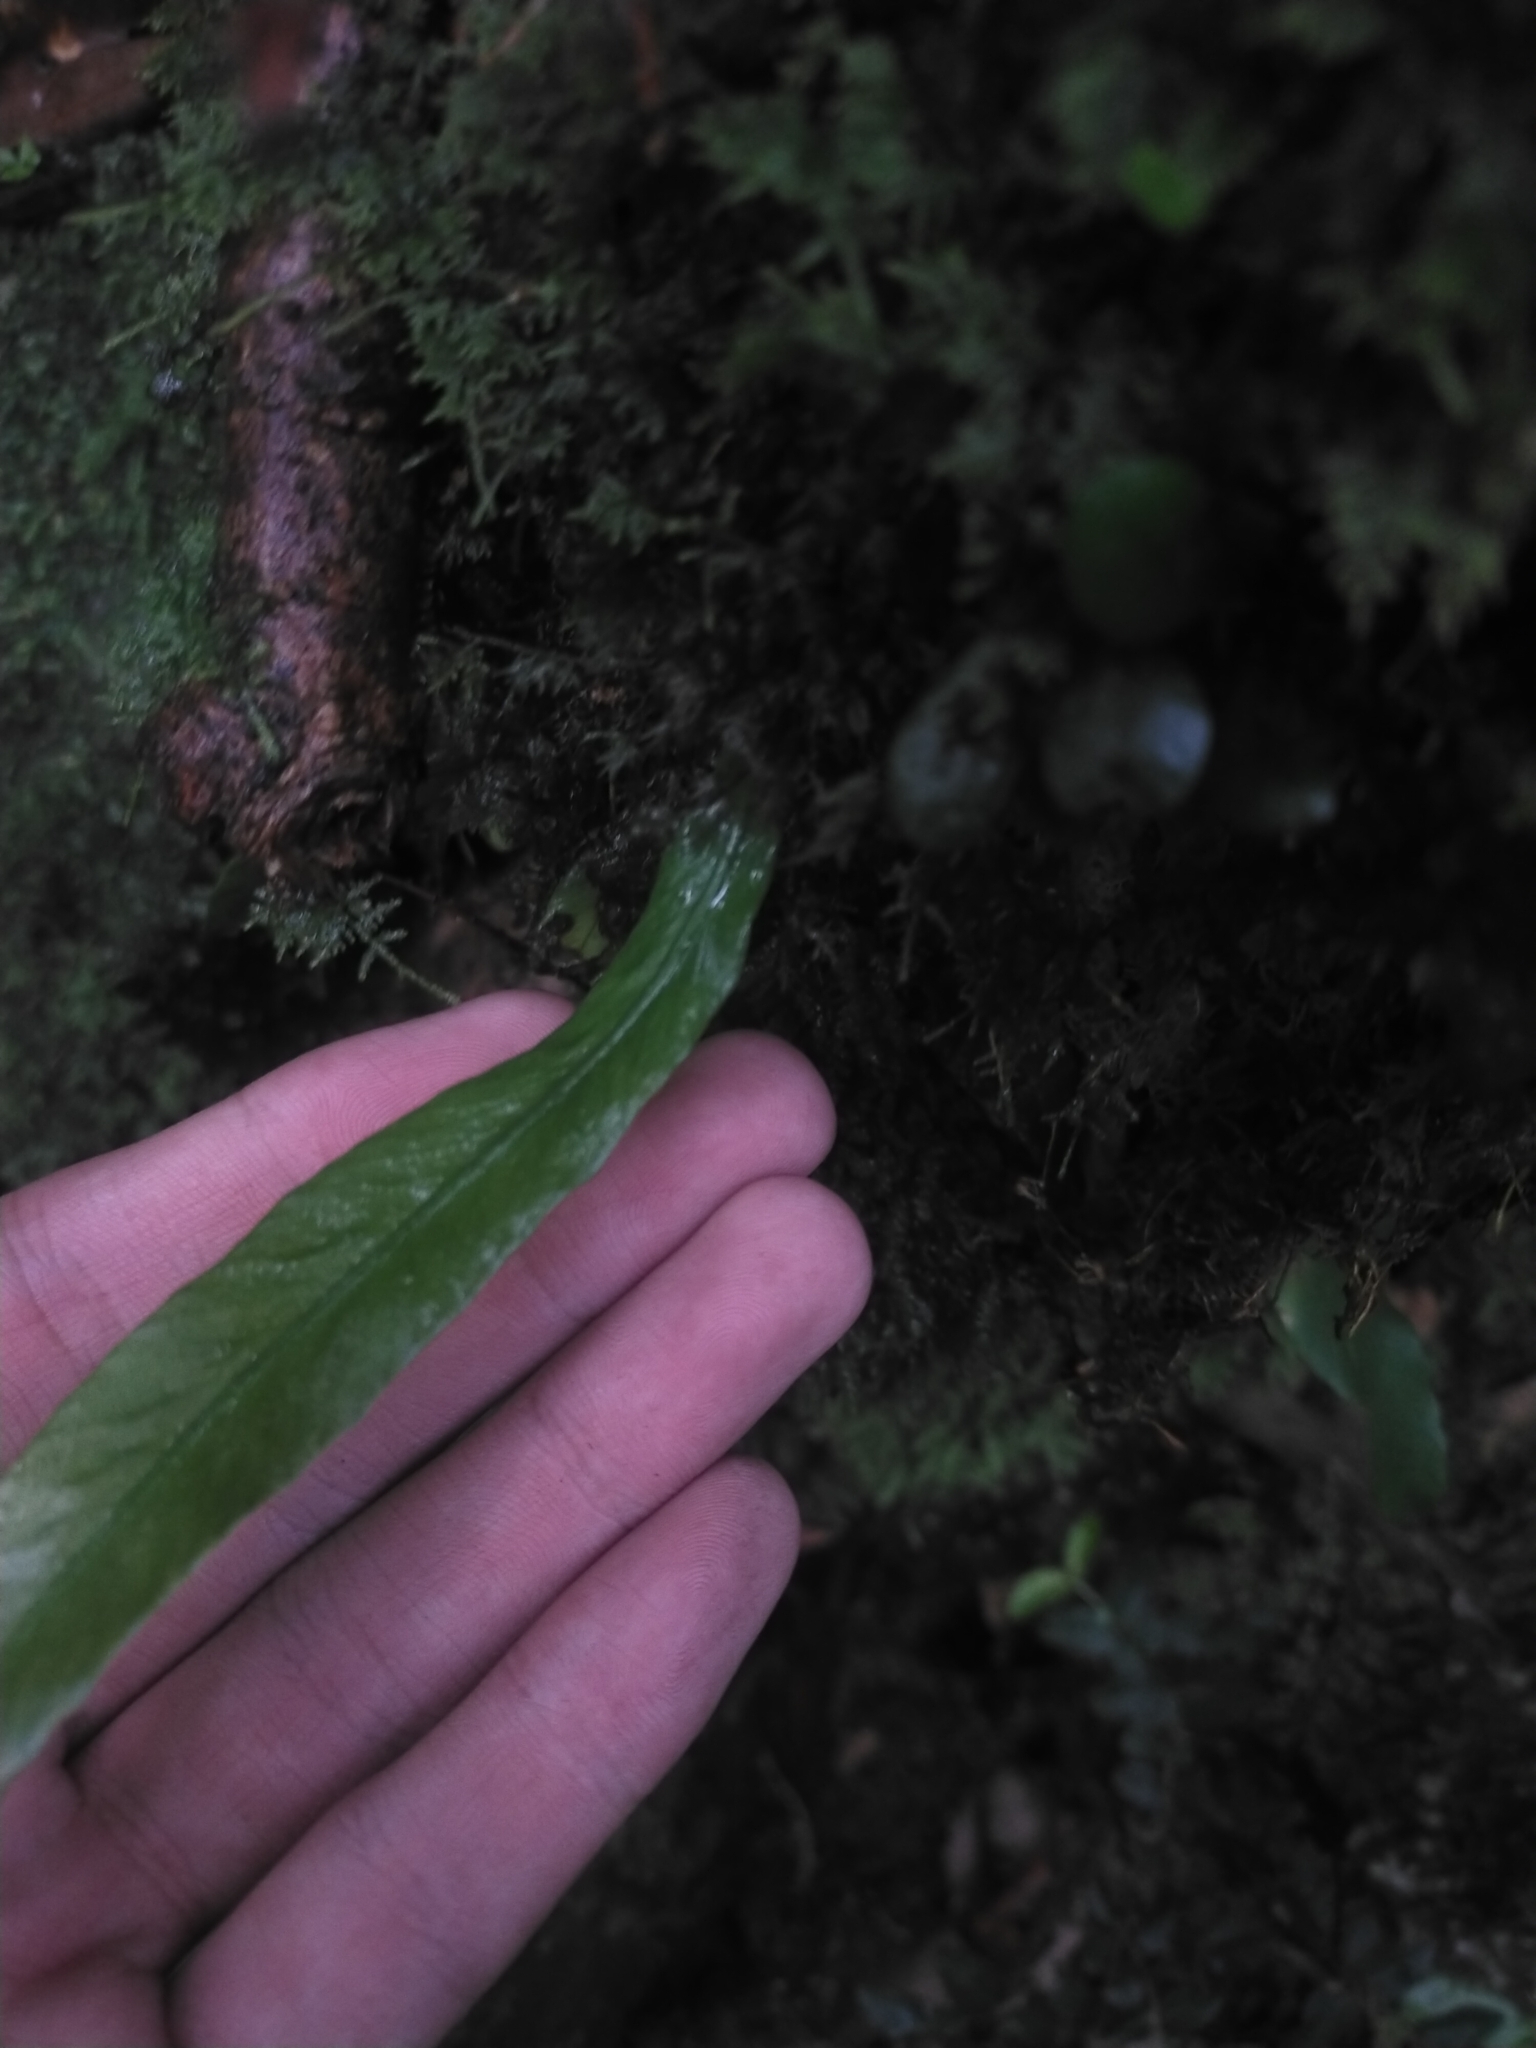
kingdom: Plantae
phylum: Tracheophyta
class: Polypodiopsida
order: Polypodiales
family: Aspleniaceae
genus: Asplenium
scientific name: Asplenium ensiforme
